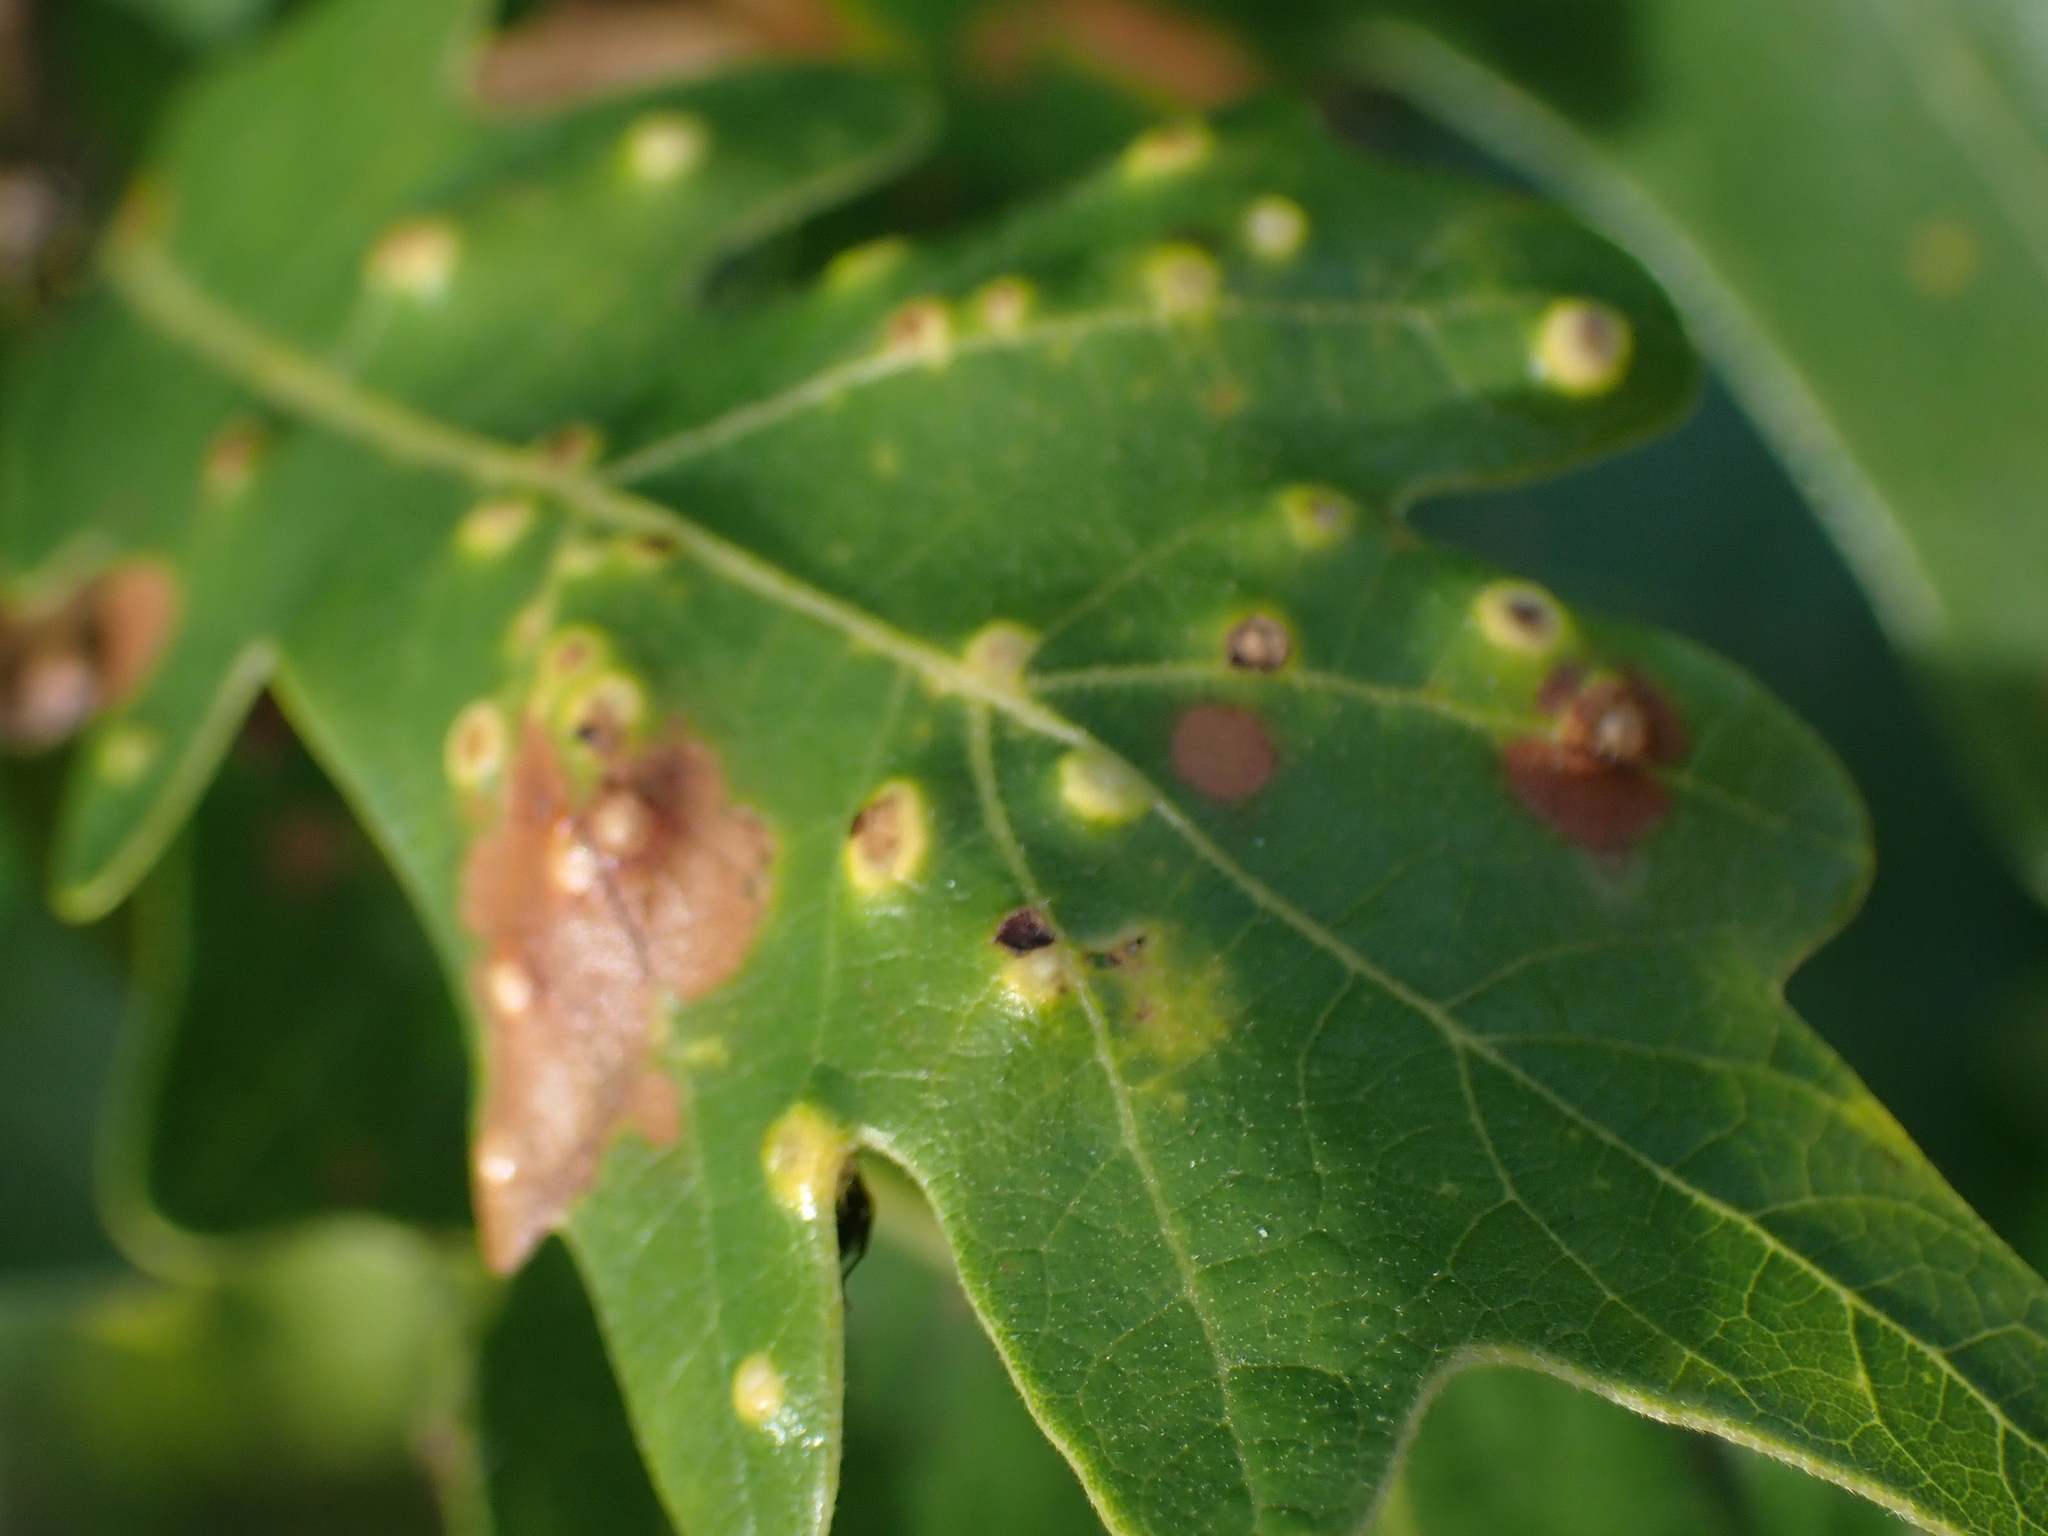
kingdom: Animalia
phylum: Arthropoda
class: Insecta
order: Hymenoptera
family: Cynipidae
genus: Neuroterus
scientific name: Neuroterus floccosus
